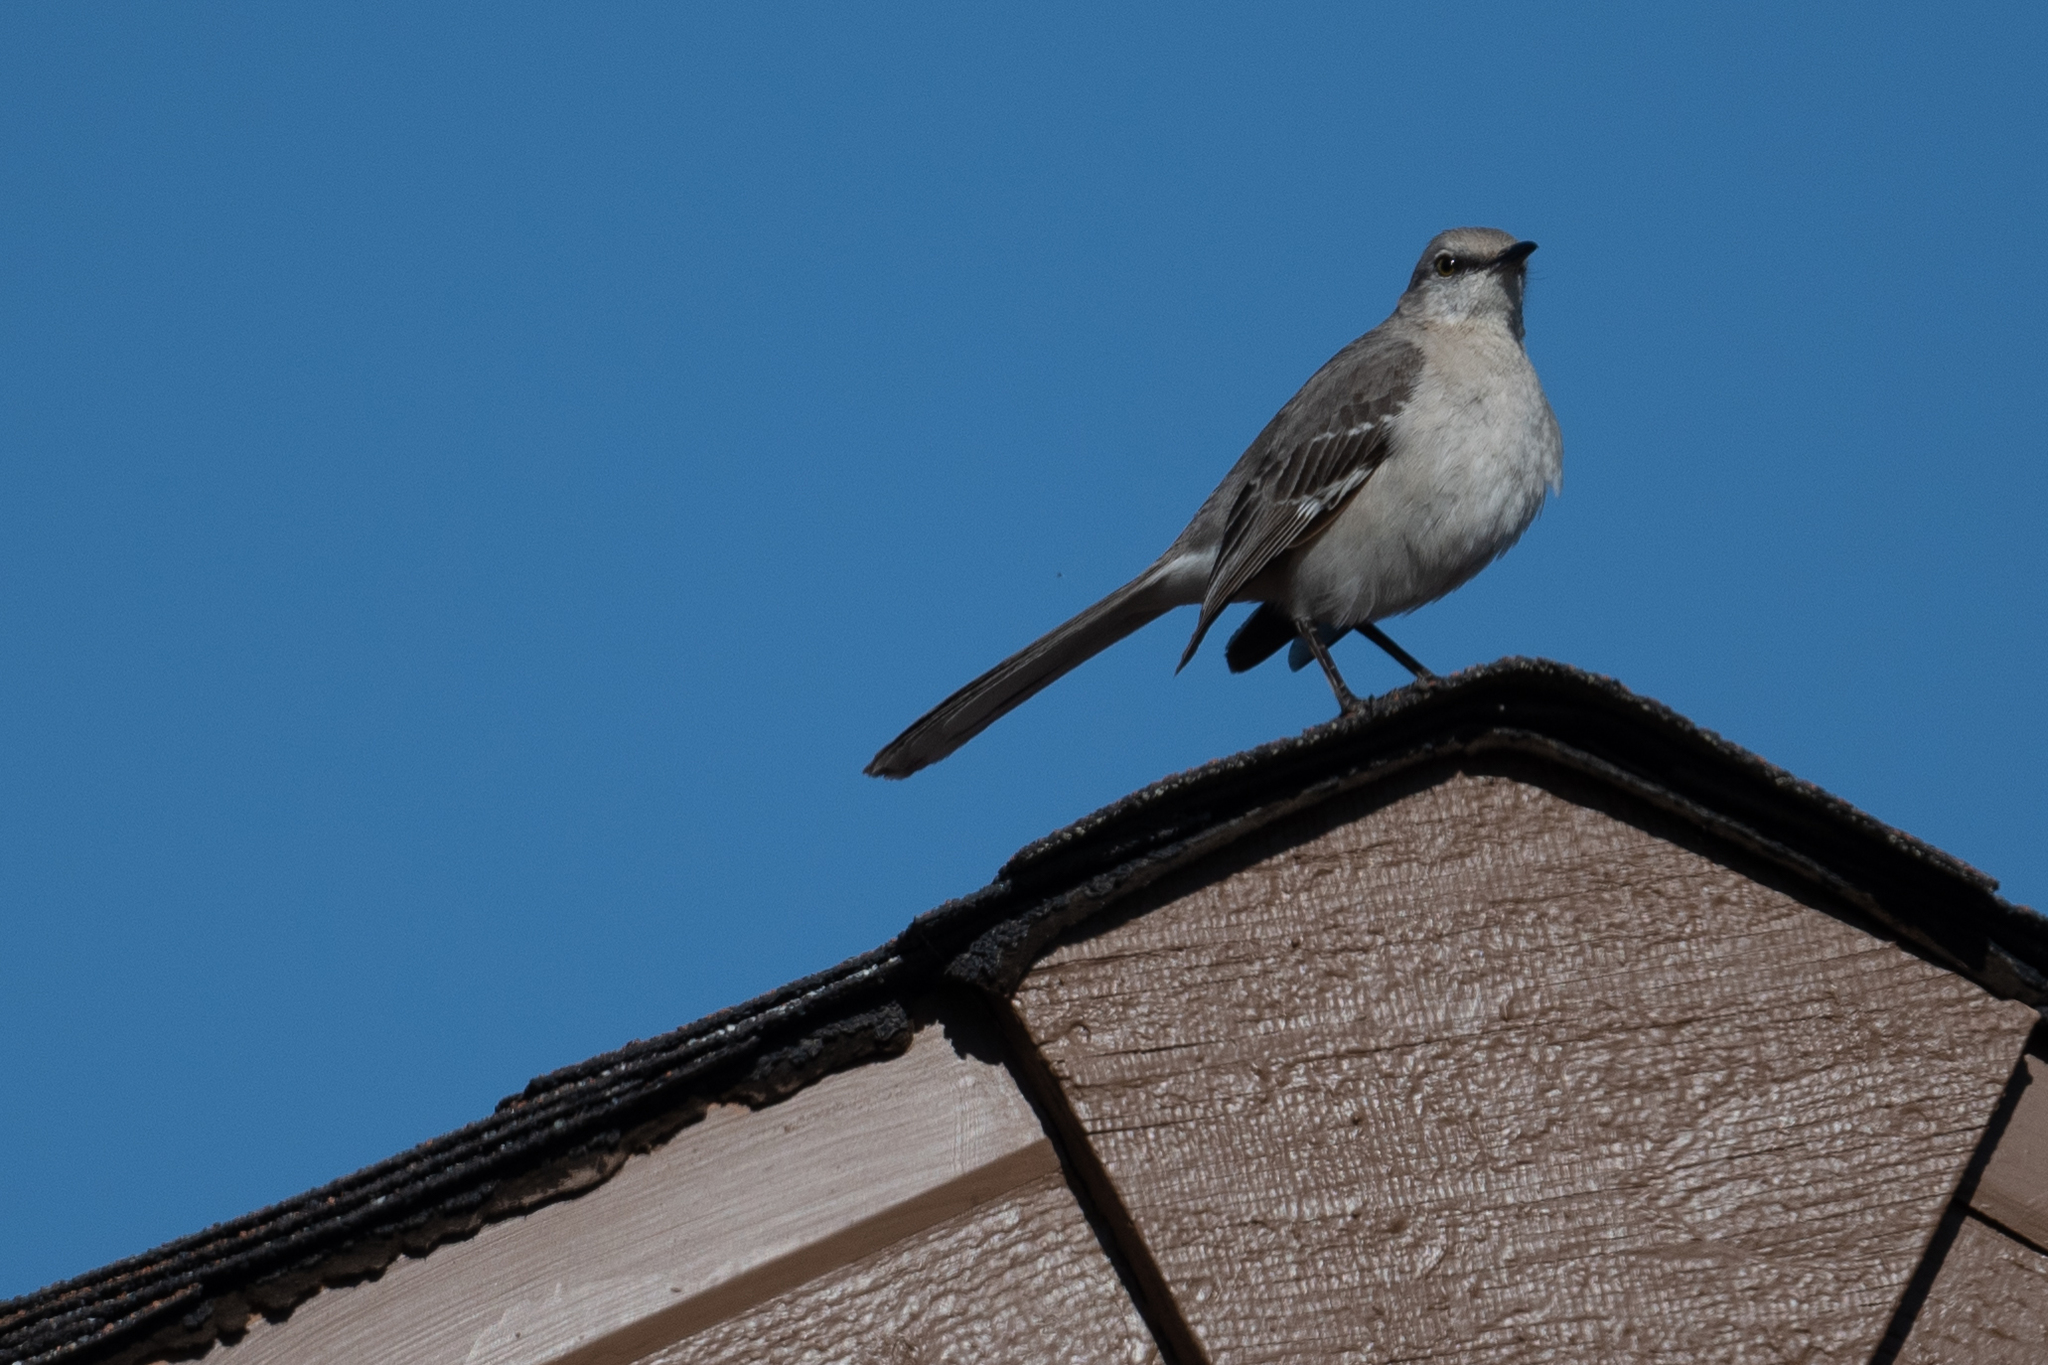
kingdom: Animalia
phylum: Chordata
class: Aves
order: Passeriformes
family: Mimidae
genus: Mimus
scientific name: Mimus polyglottos
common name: Northern mockingbird
